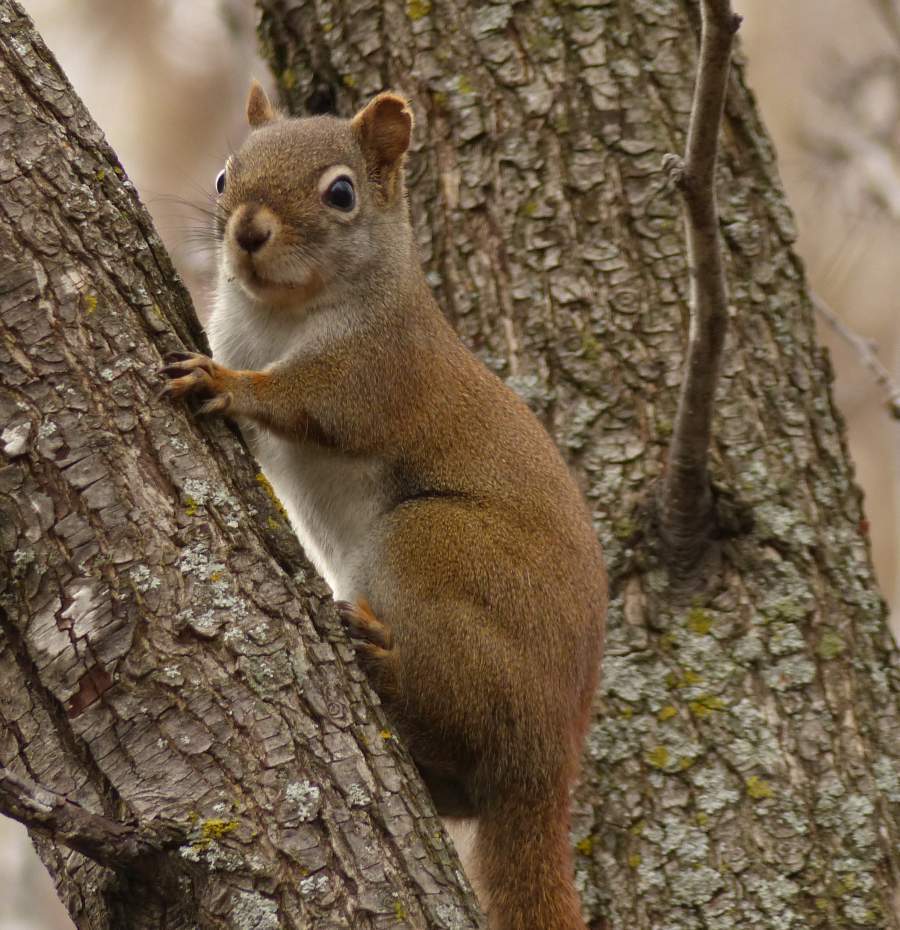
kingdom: Animalia
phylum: Chordata
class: Mammalia
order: Rodentia
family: Sciuridae
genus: Tamiasciurus
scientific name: Tamiasciurus hudsonicus
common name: Red squirrel
